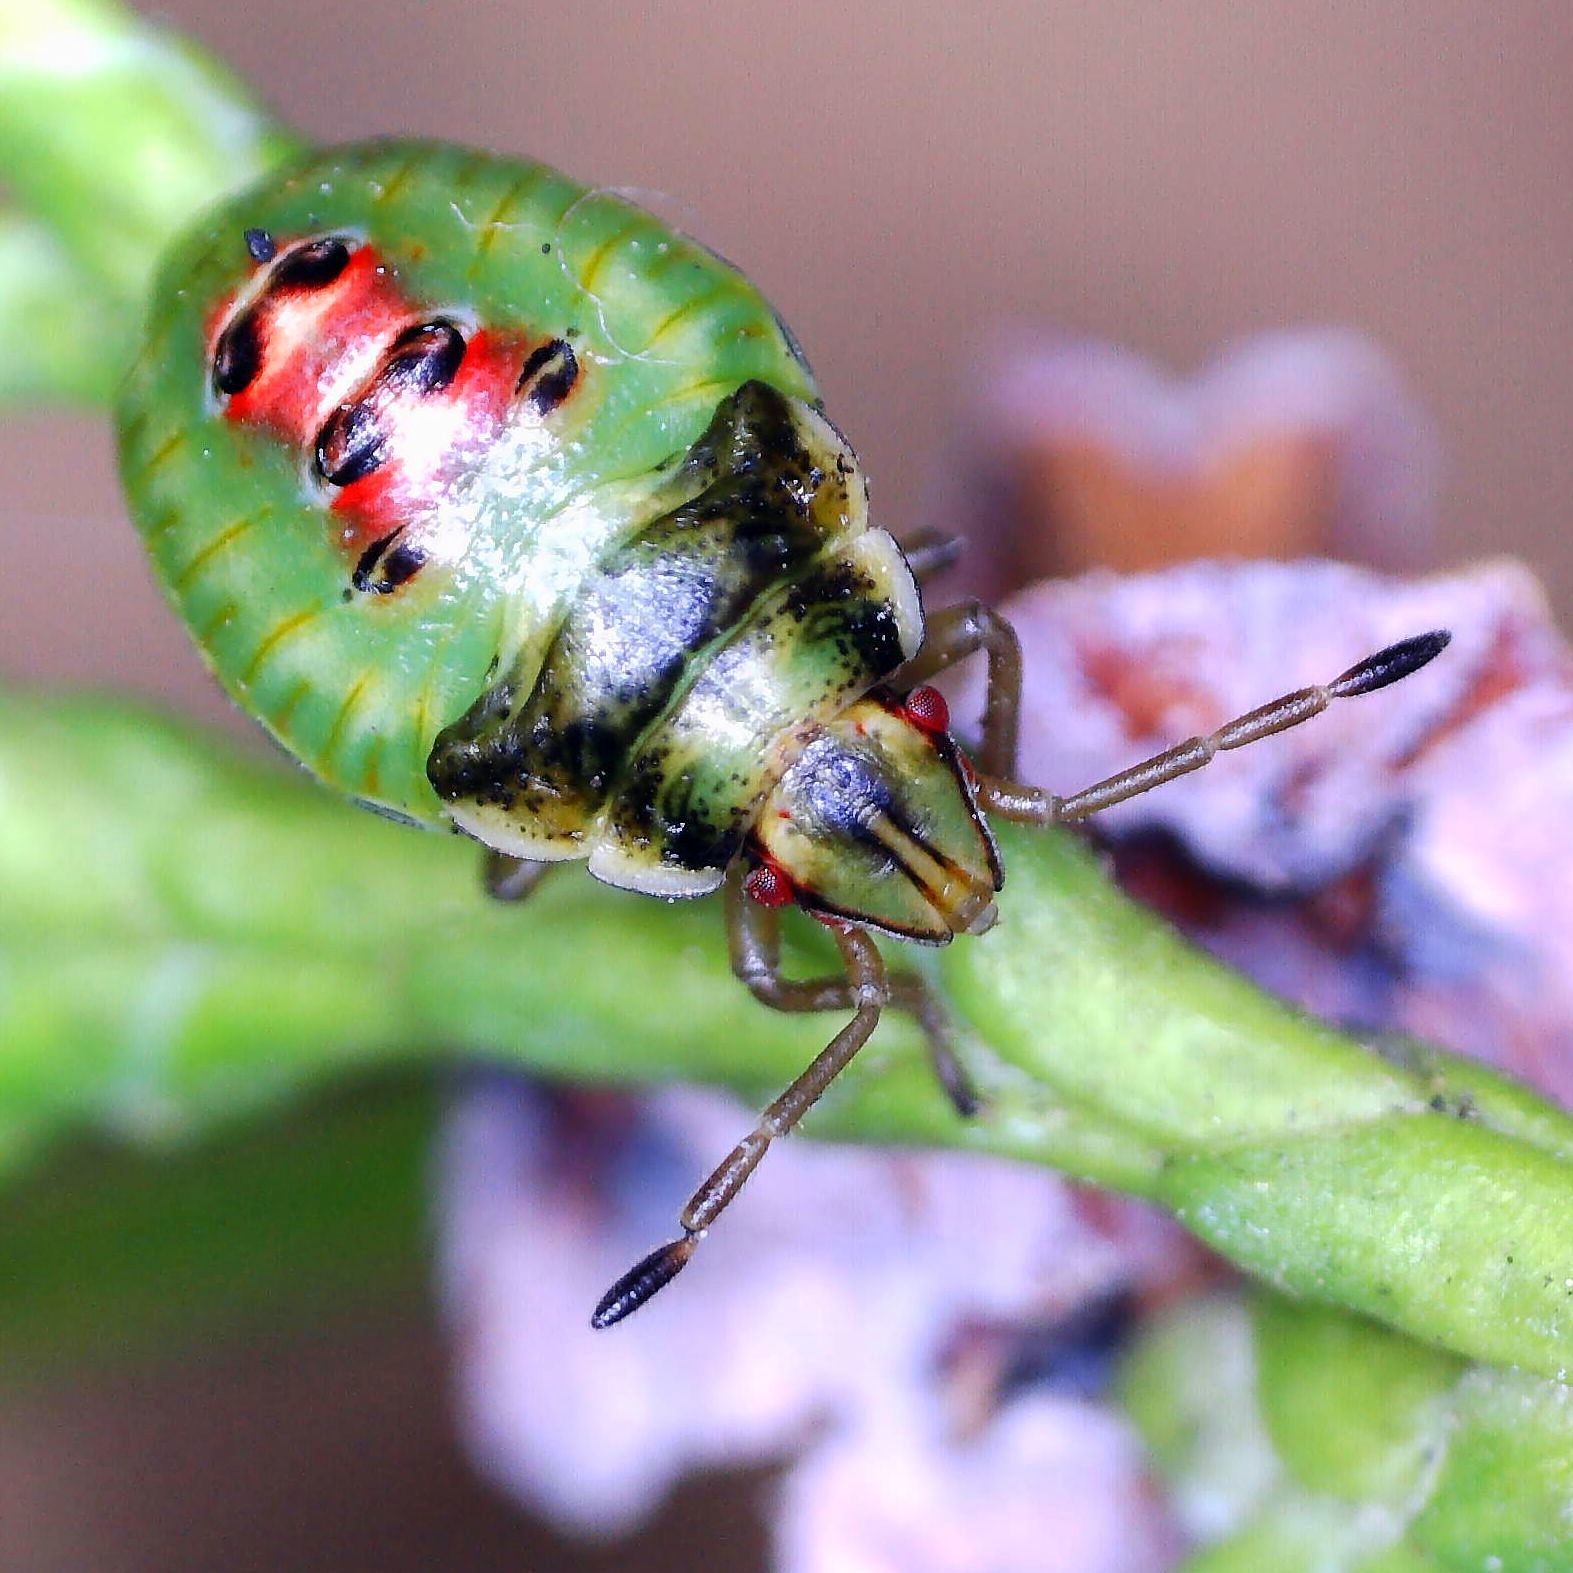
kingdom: Animalia
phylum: Arthropoda
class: Insecta
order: Hemiptera
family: Acanthosomatidae
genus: Cyphostethus
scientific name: Cyphostethus tristriatus
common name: Juniper shieldbug
